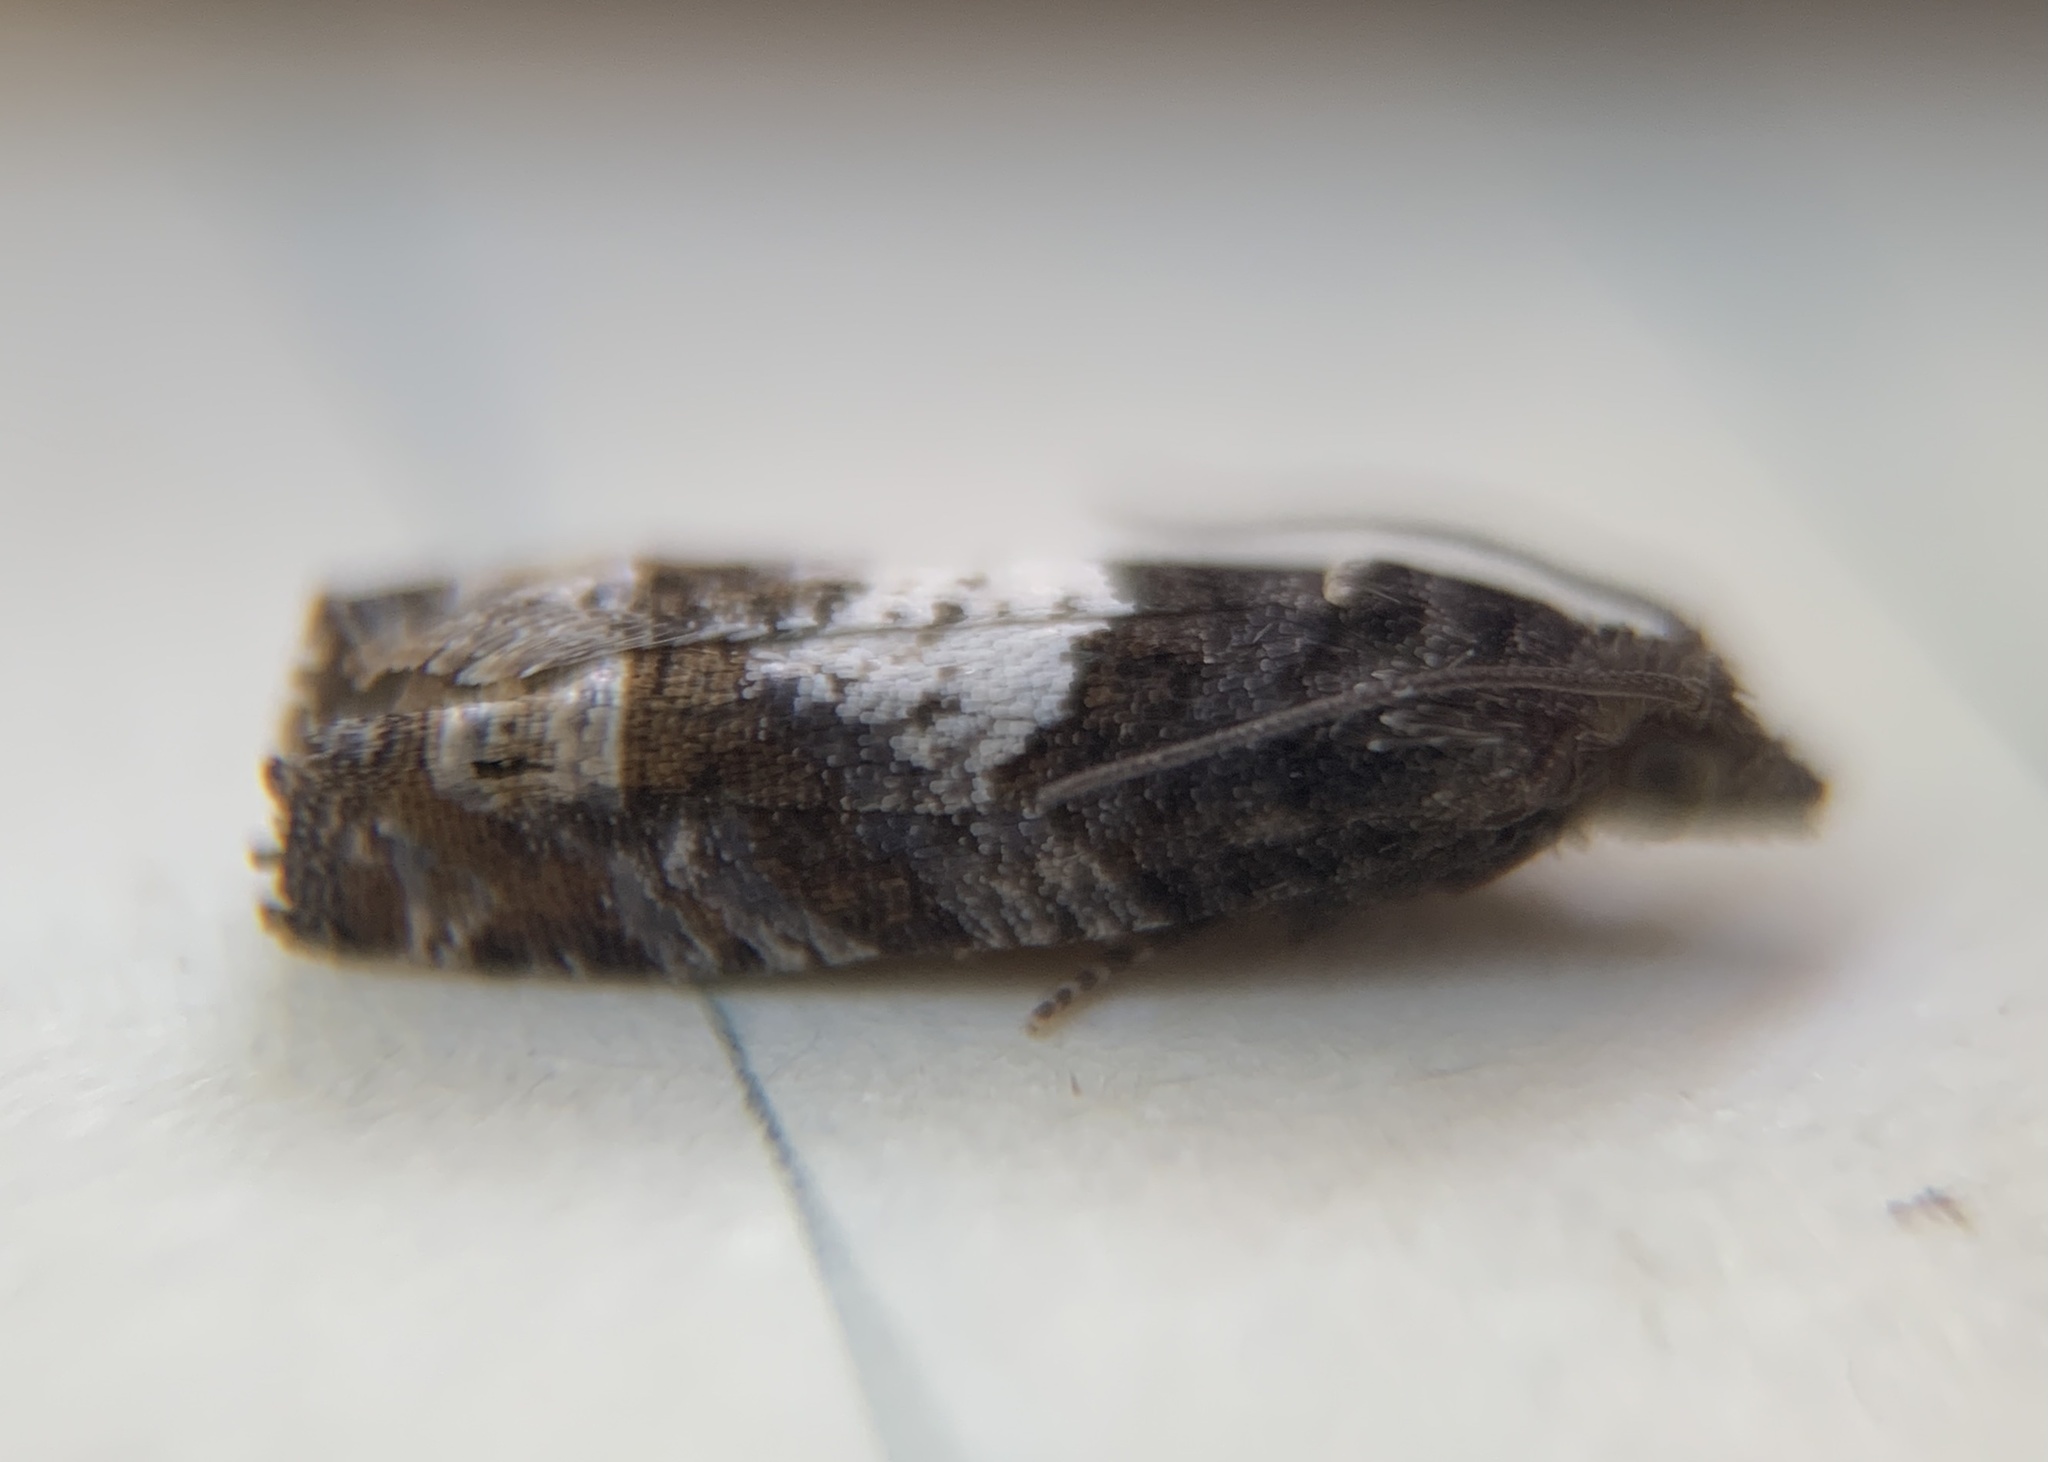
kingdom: Animalia
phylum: Arthropoda
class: Insecta
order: Lepidoptera
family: Tortricidae
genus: Eucosma
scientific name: Eucosma parmatana
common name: Aster eucosma moth
